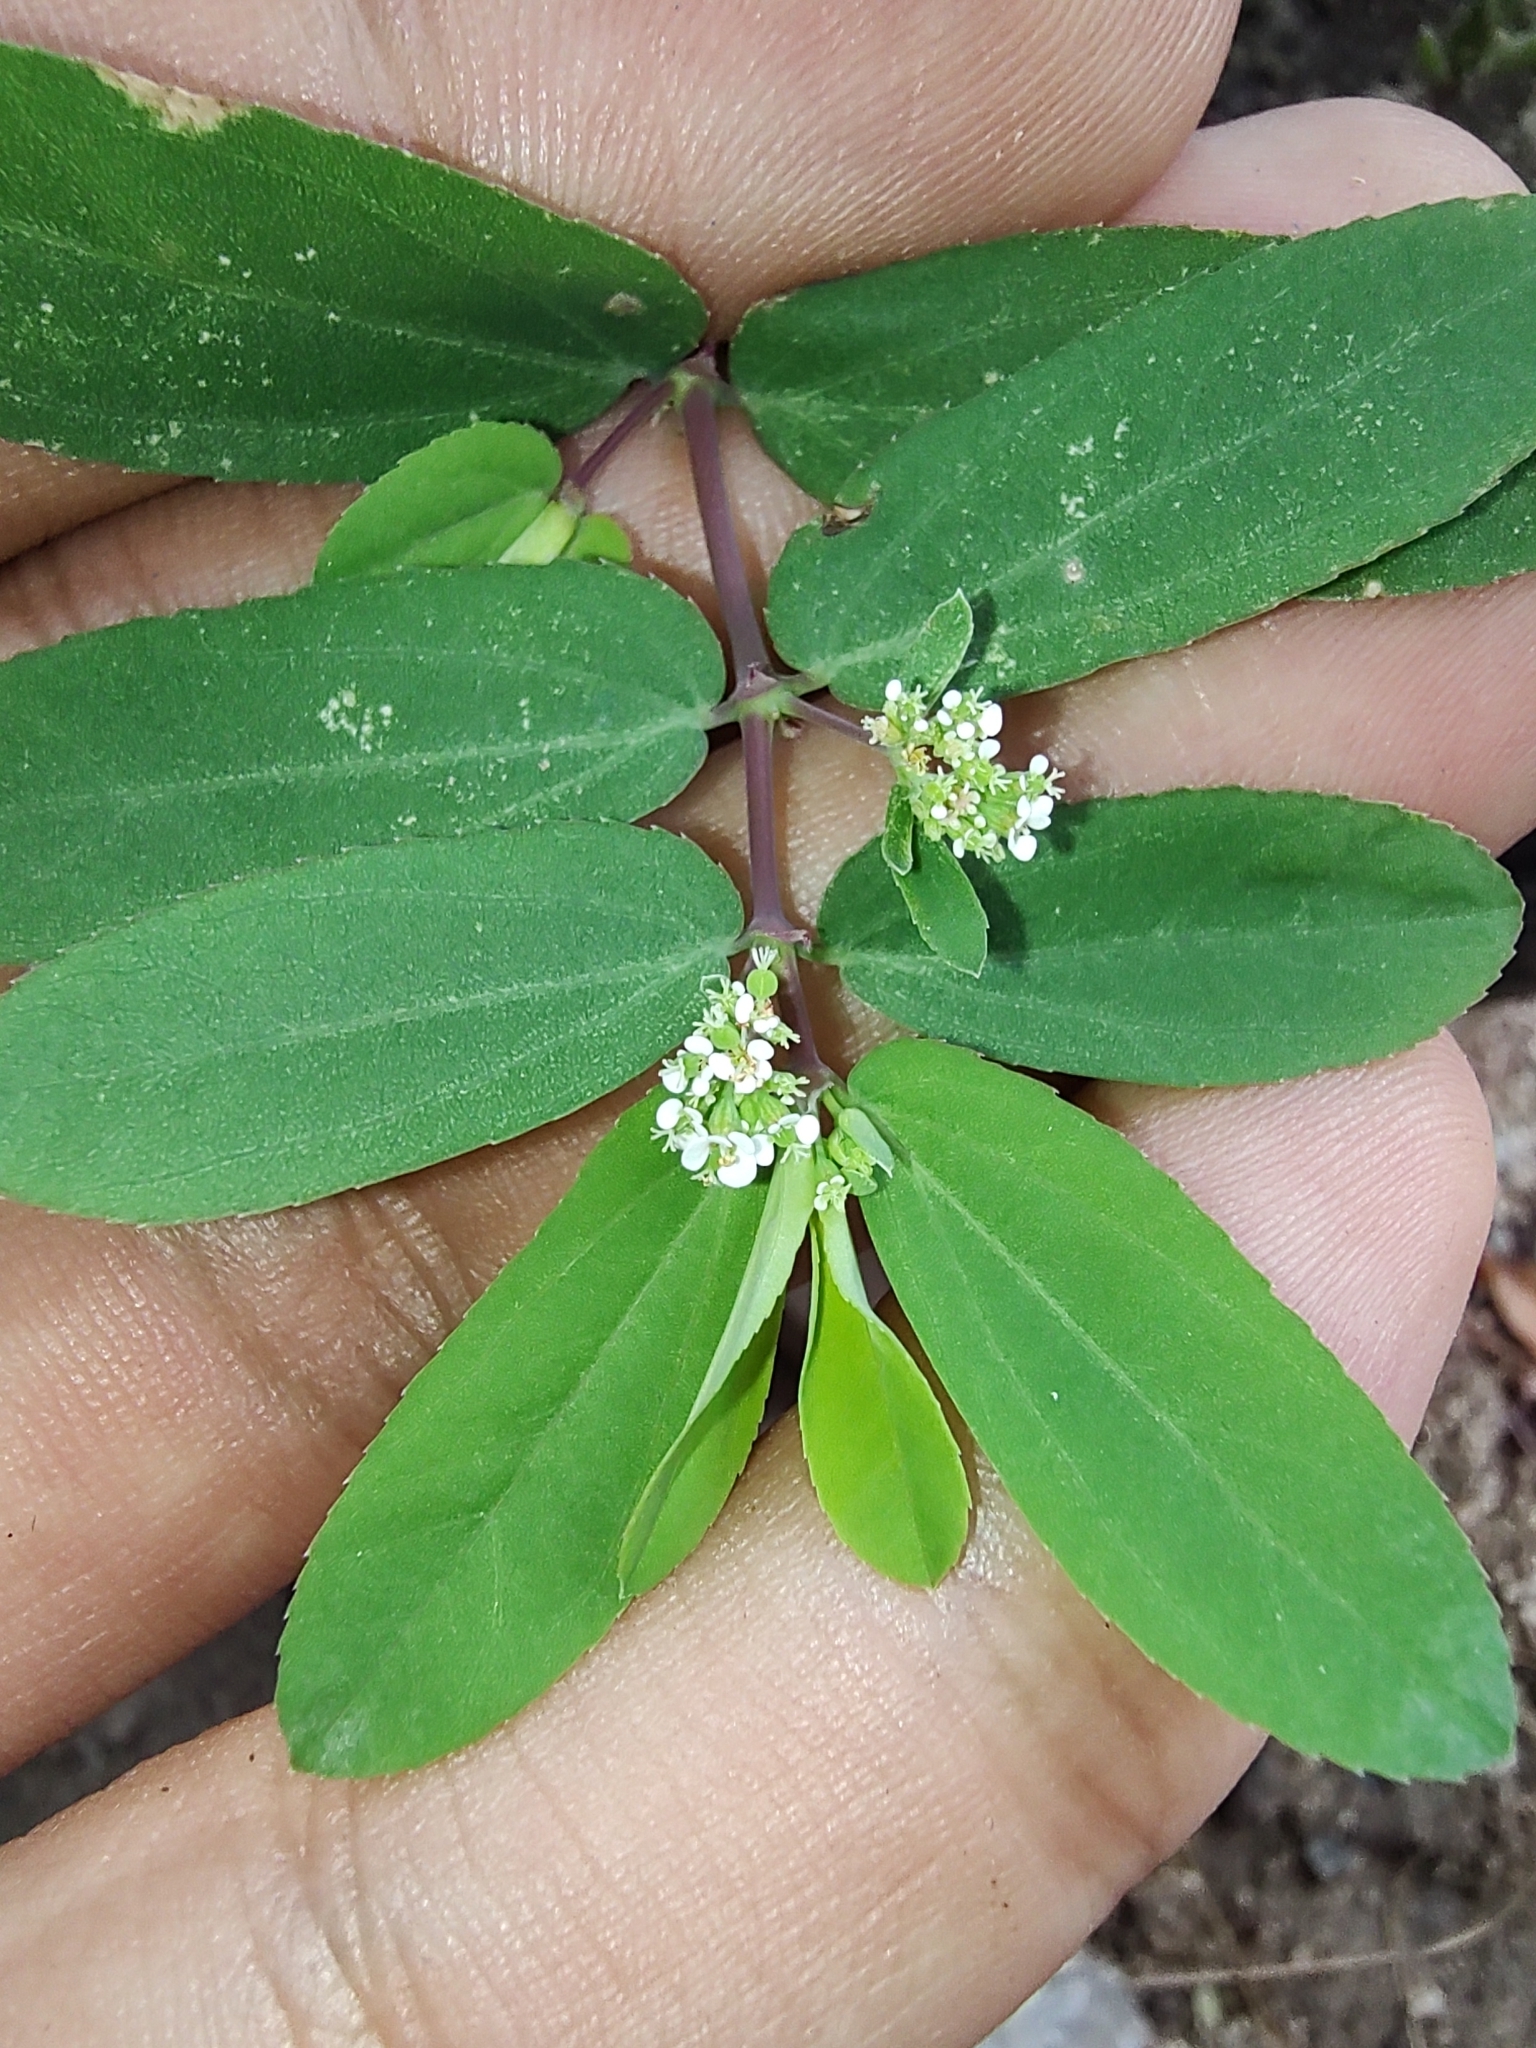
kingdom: Plantae
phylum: Tracheophyta
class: Magnoliopsida
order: Malpighiales
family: Euphorbiaceae
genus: Euphorbia
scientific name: Euphorbia hypericifolia
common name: Graceful sandmat
